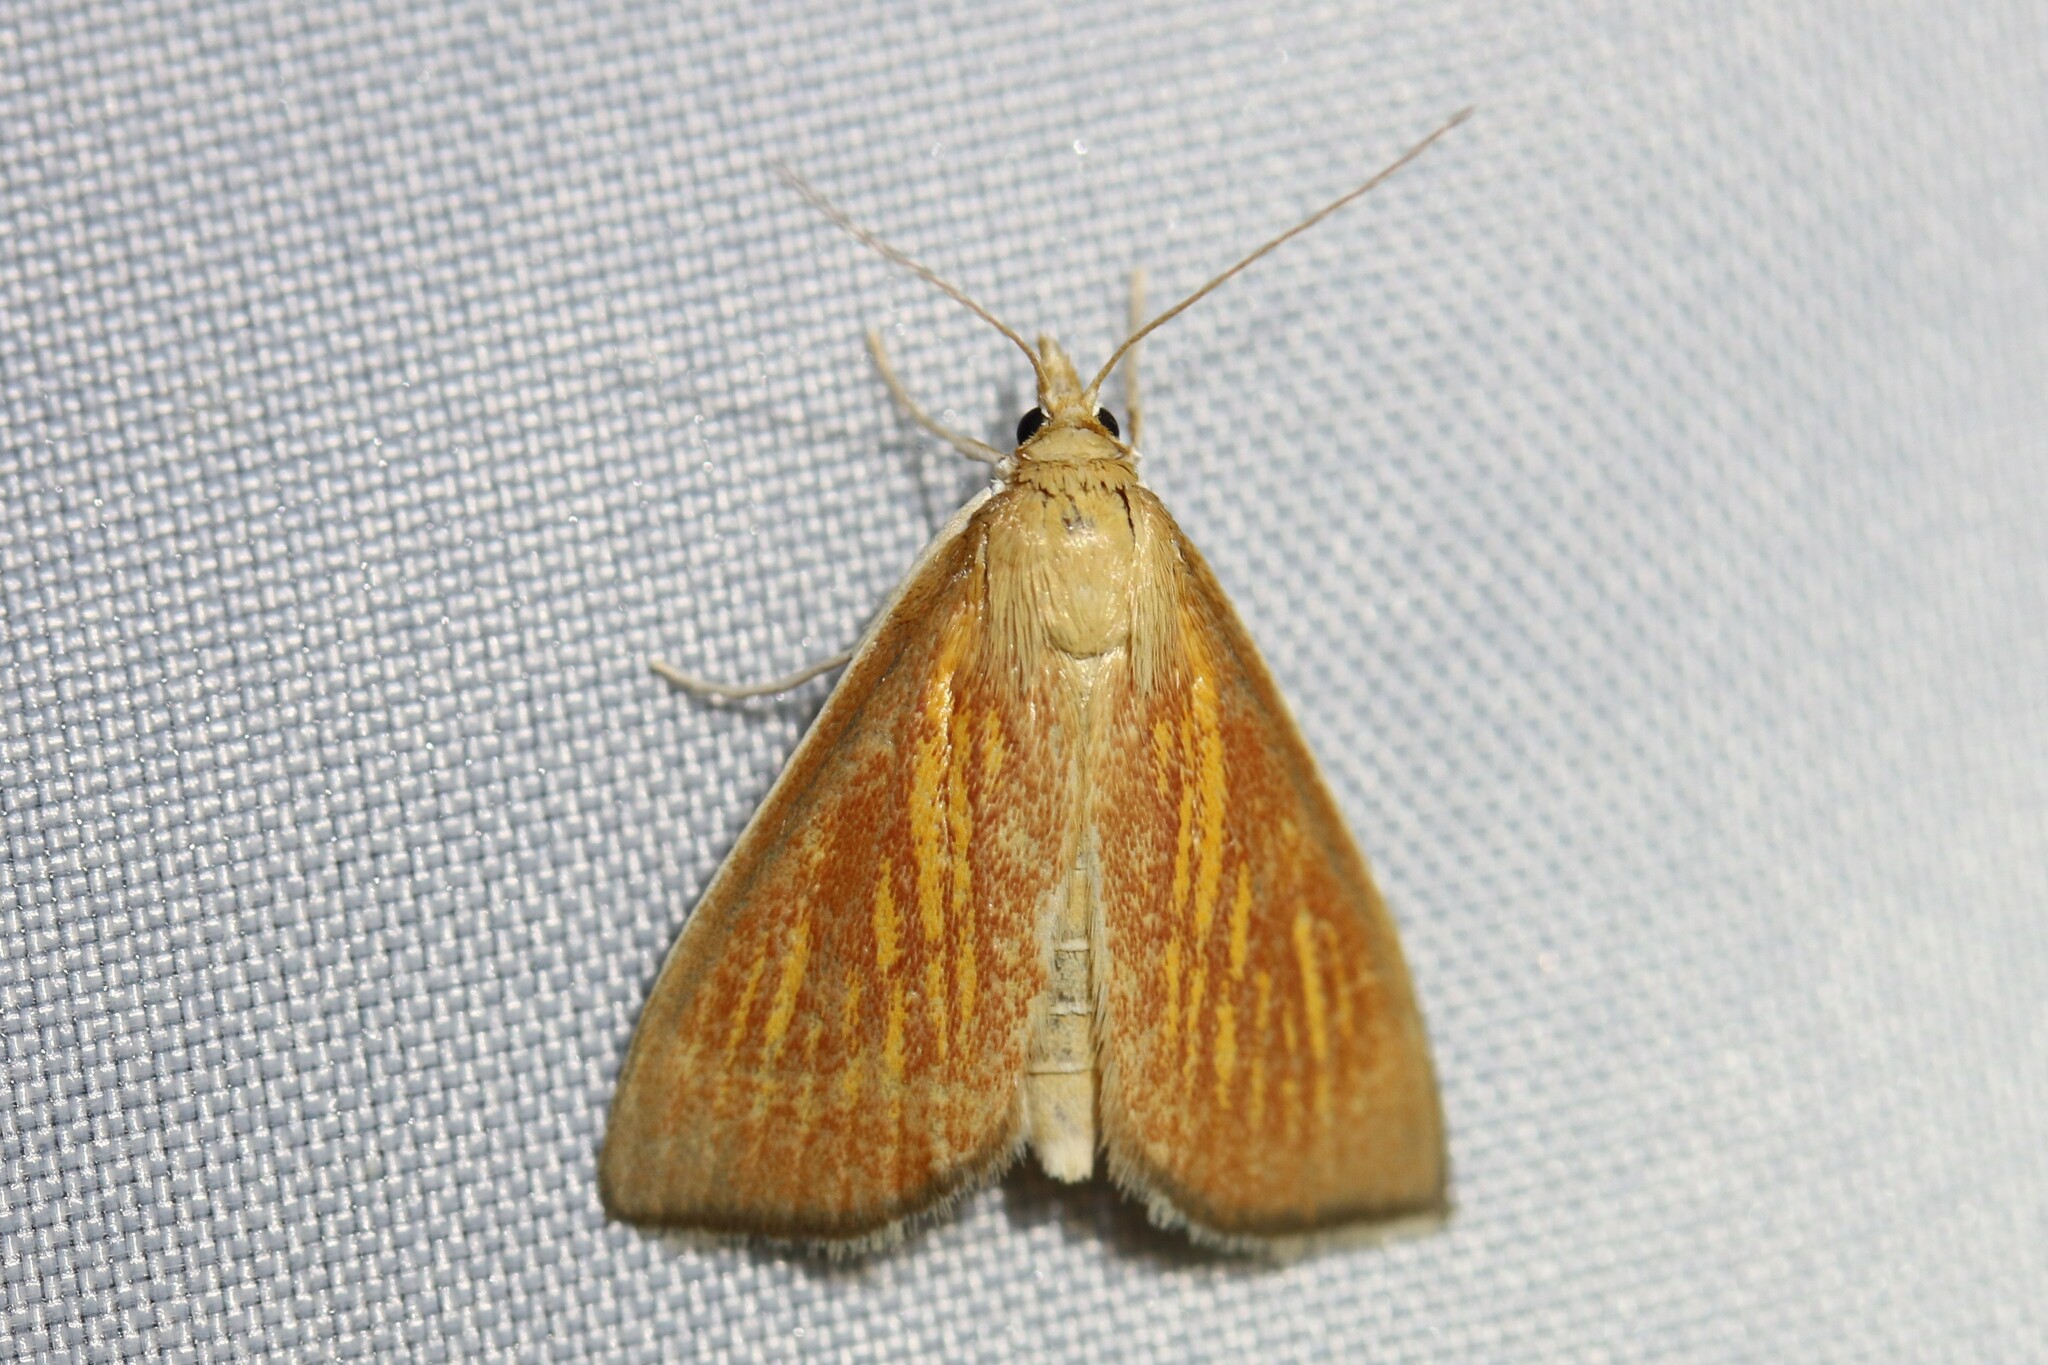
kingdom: Animalia
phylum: Arthropoda
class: Insecta
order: Lepidoptera
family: Crambidae
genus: Nascia
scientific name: Nascia cilialis
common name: Orange-rayed pearl
